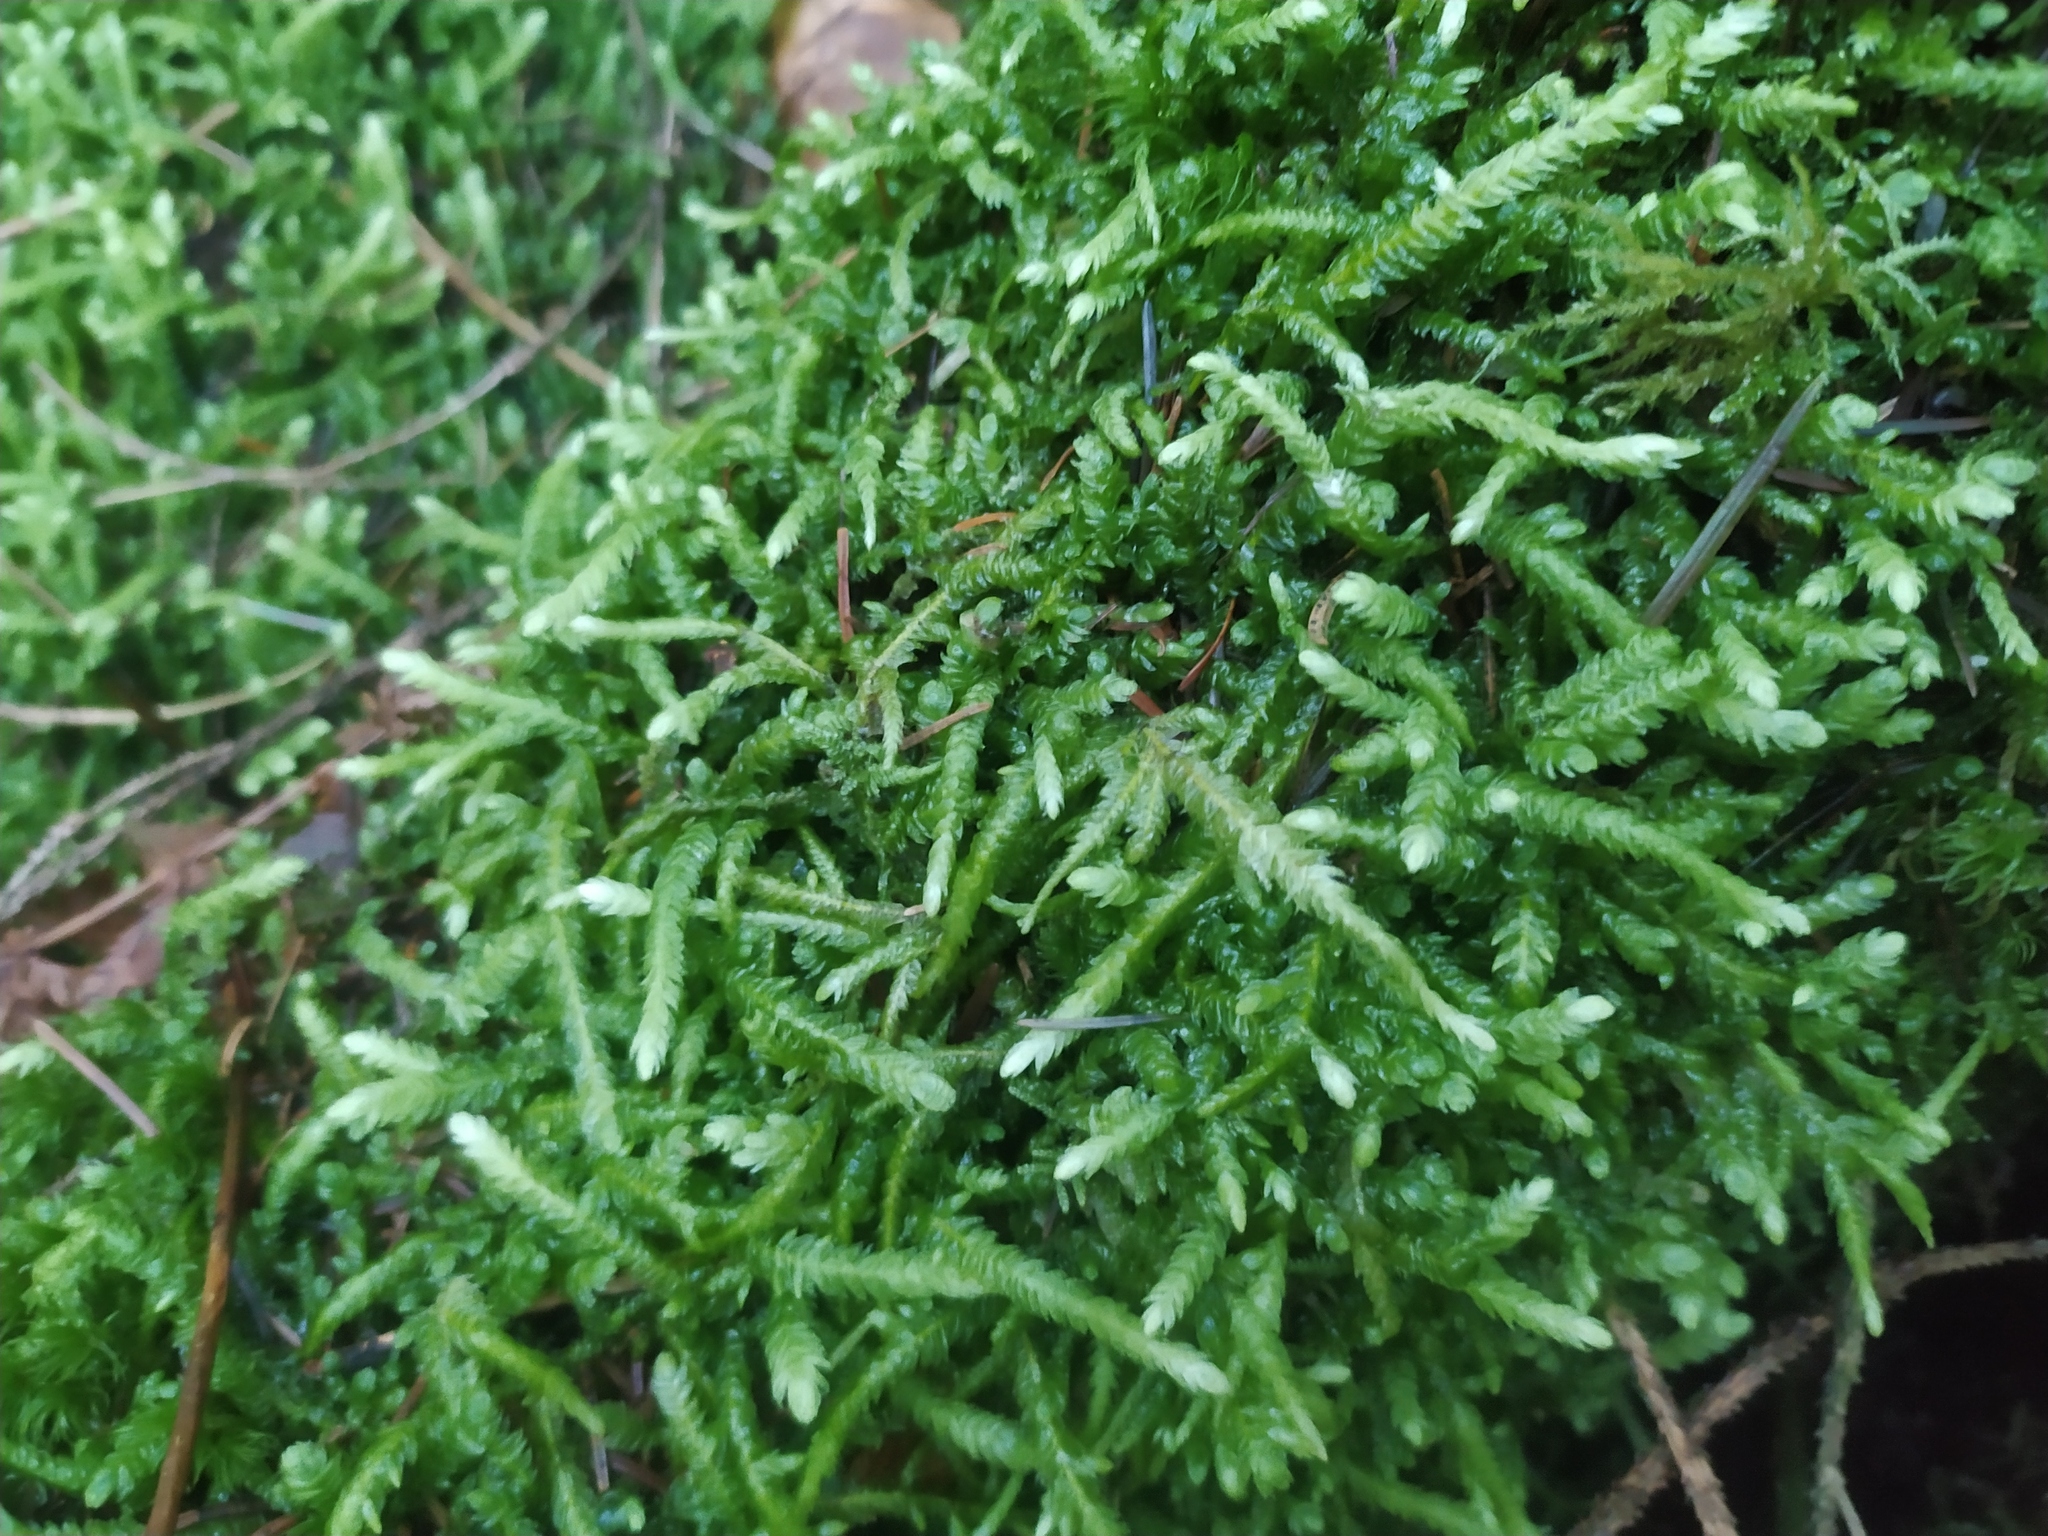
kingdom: Plantae
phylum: Bryophyta
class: Bryopsida
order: Hypnales
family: Plagiotheciaceae
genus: Plagiothecium
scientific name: Plagiothecium undulatum
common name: Waved silk-moss
